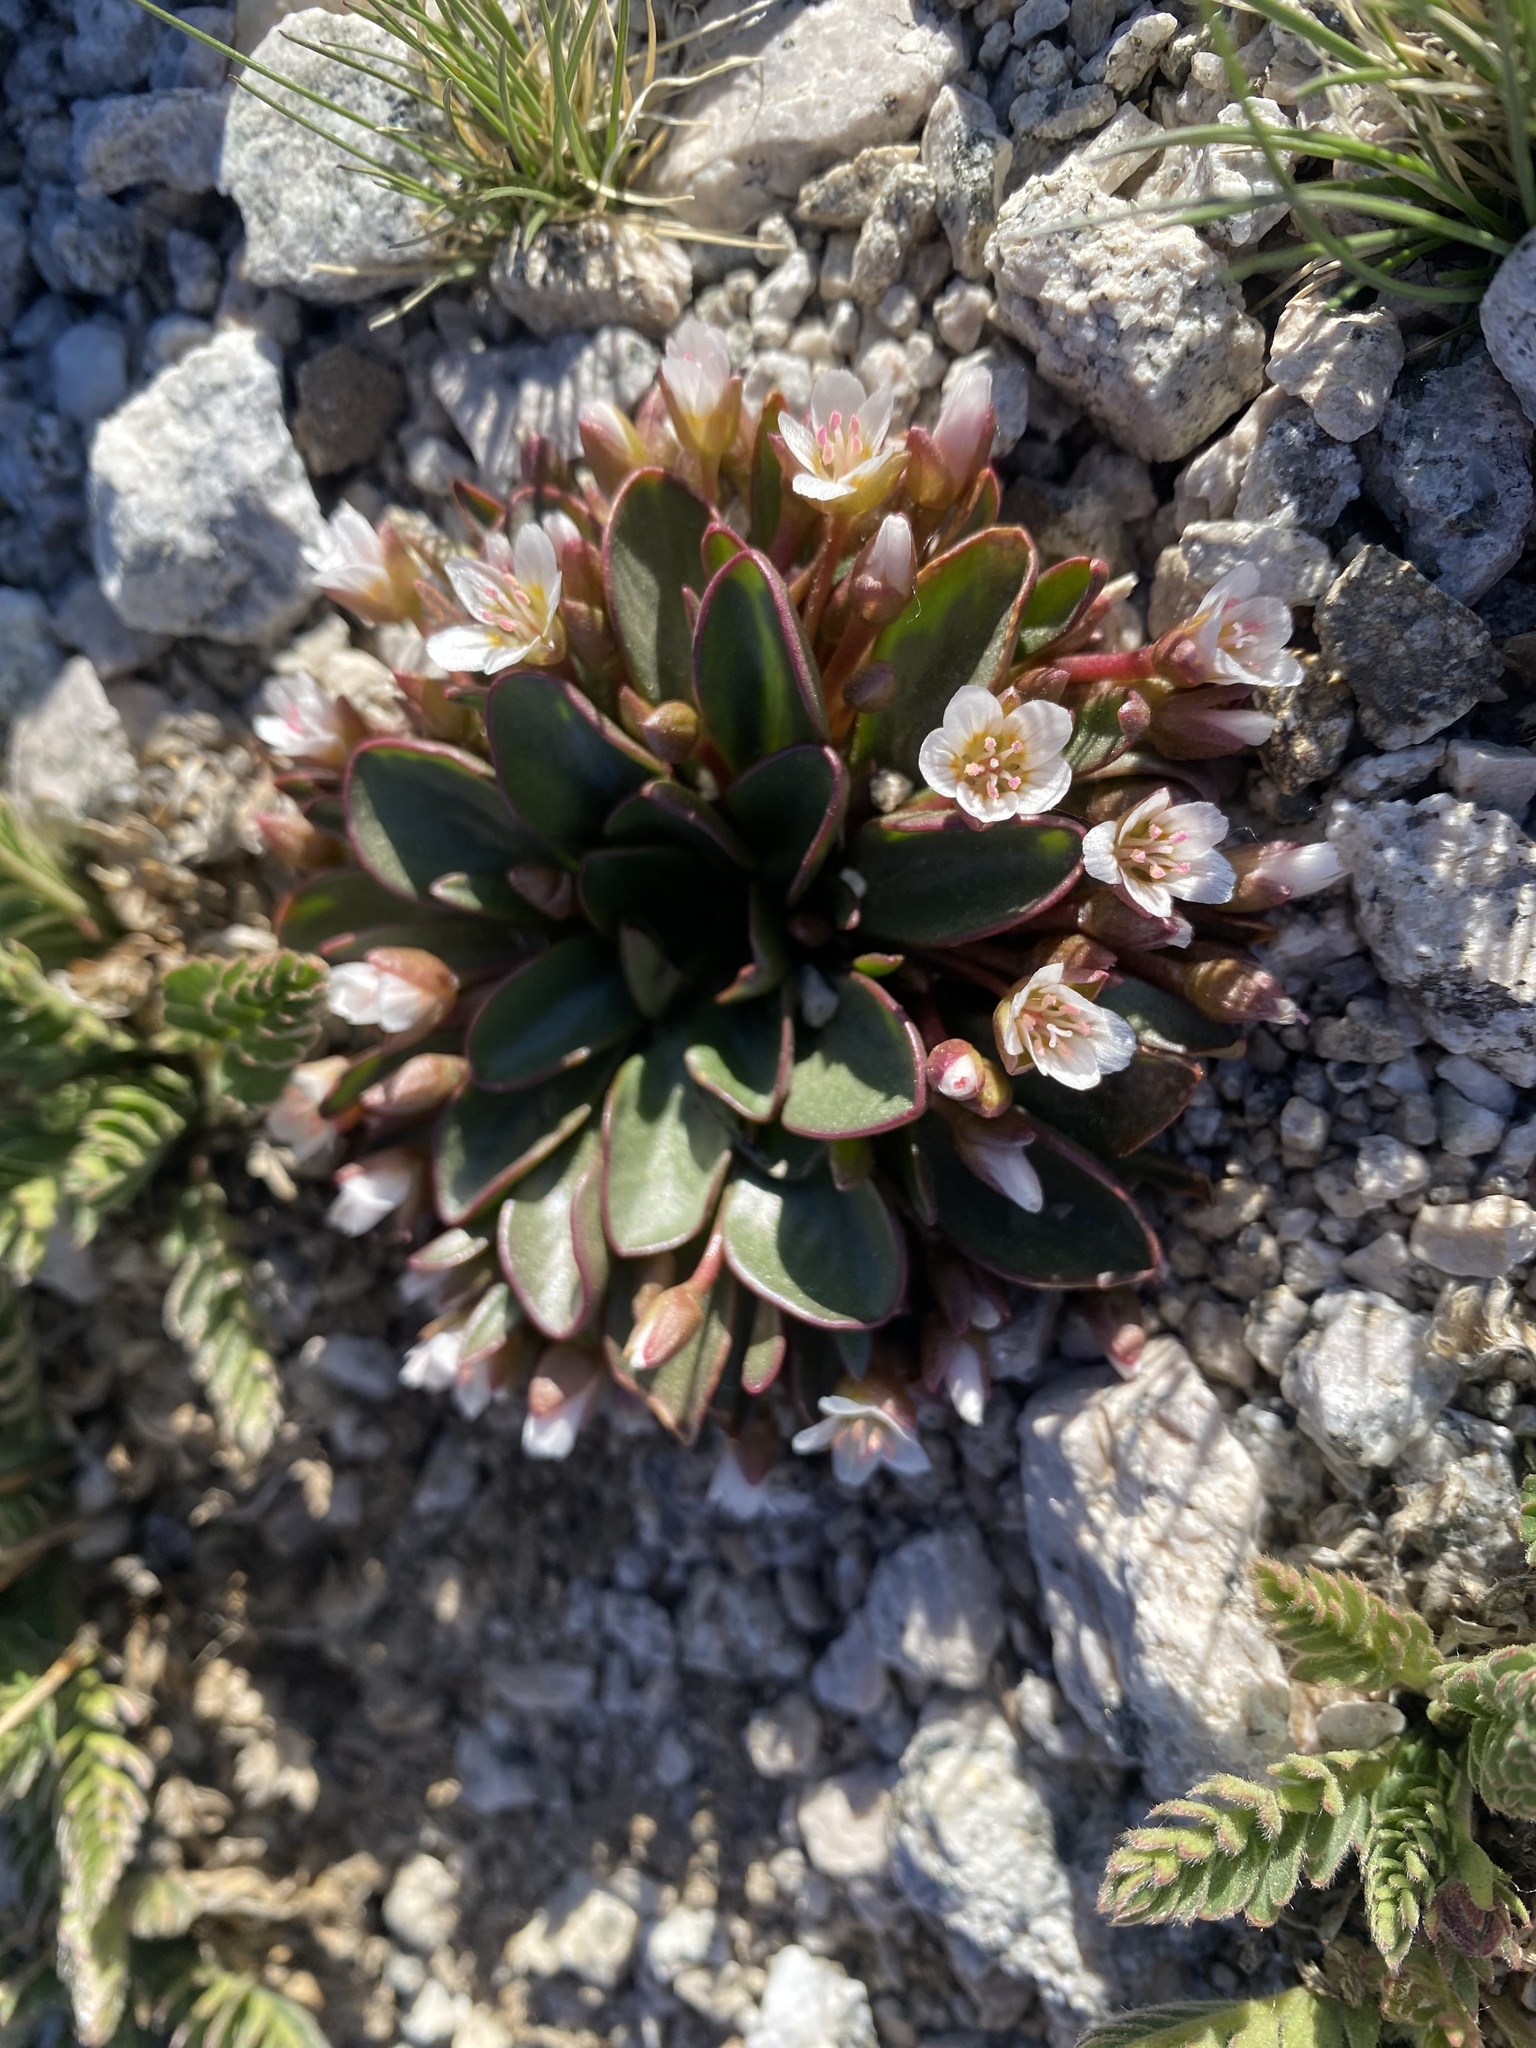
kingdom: Plantae
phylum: Tracheophyta
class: Magnoliopsida
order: Caryophyllales
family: Montiaceae
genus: Claytonia
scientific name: Claytonia megarhiza
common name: Alpine spring beauty
